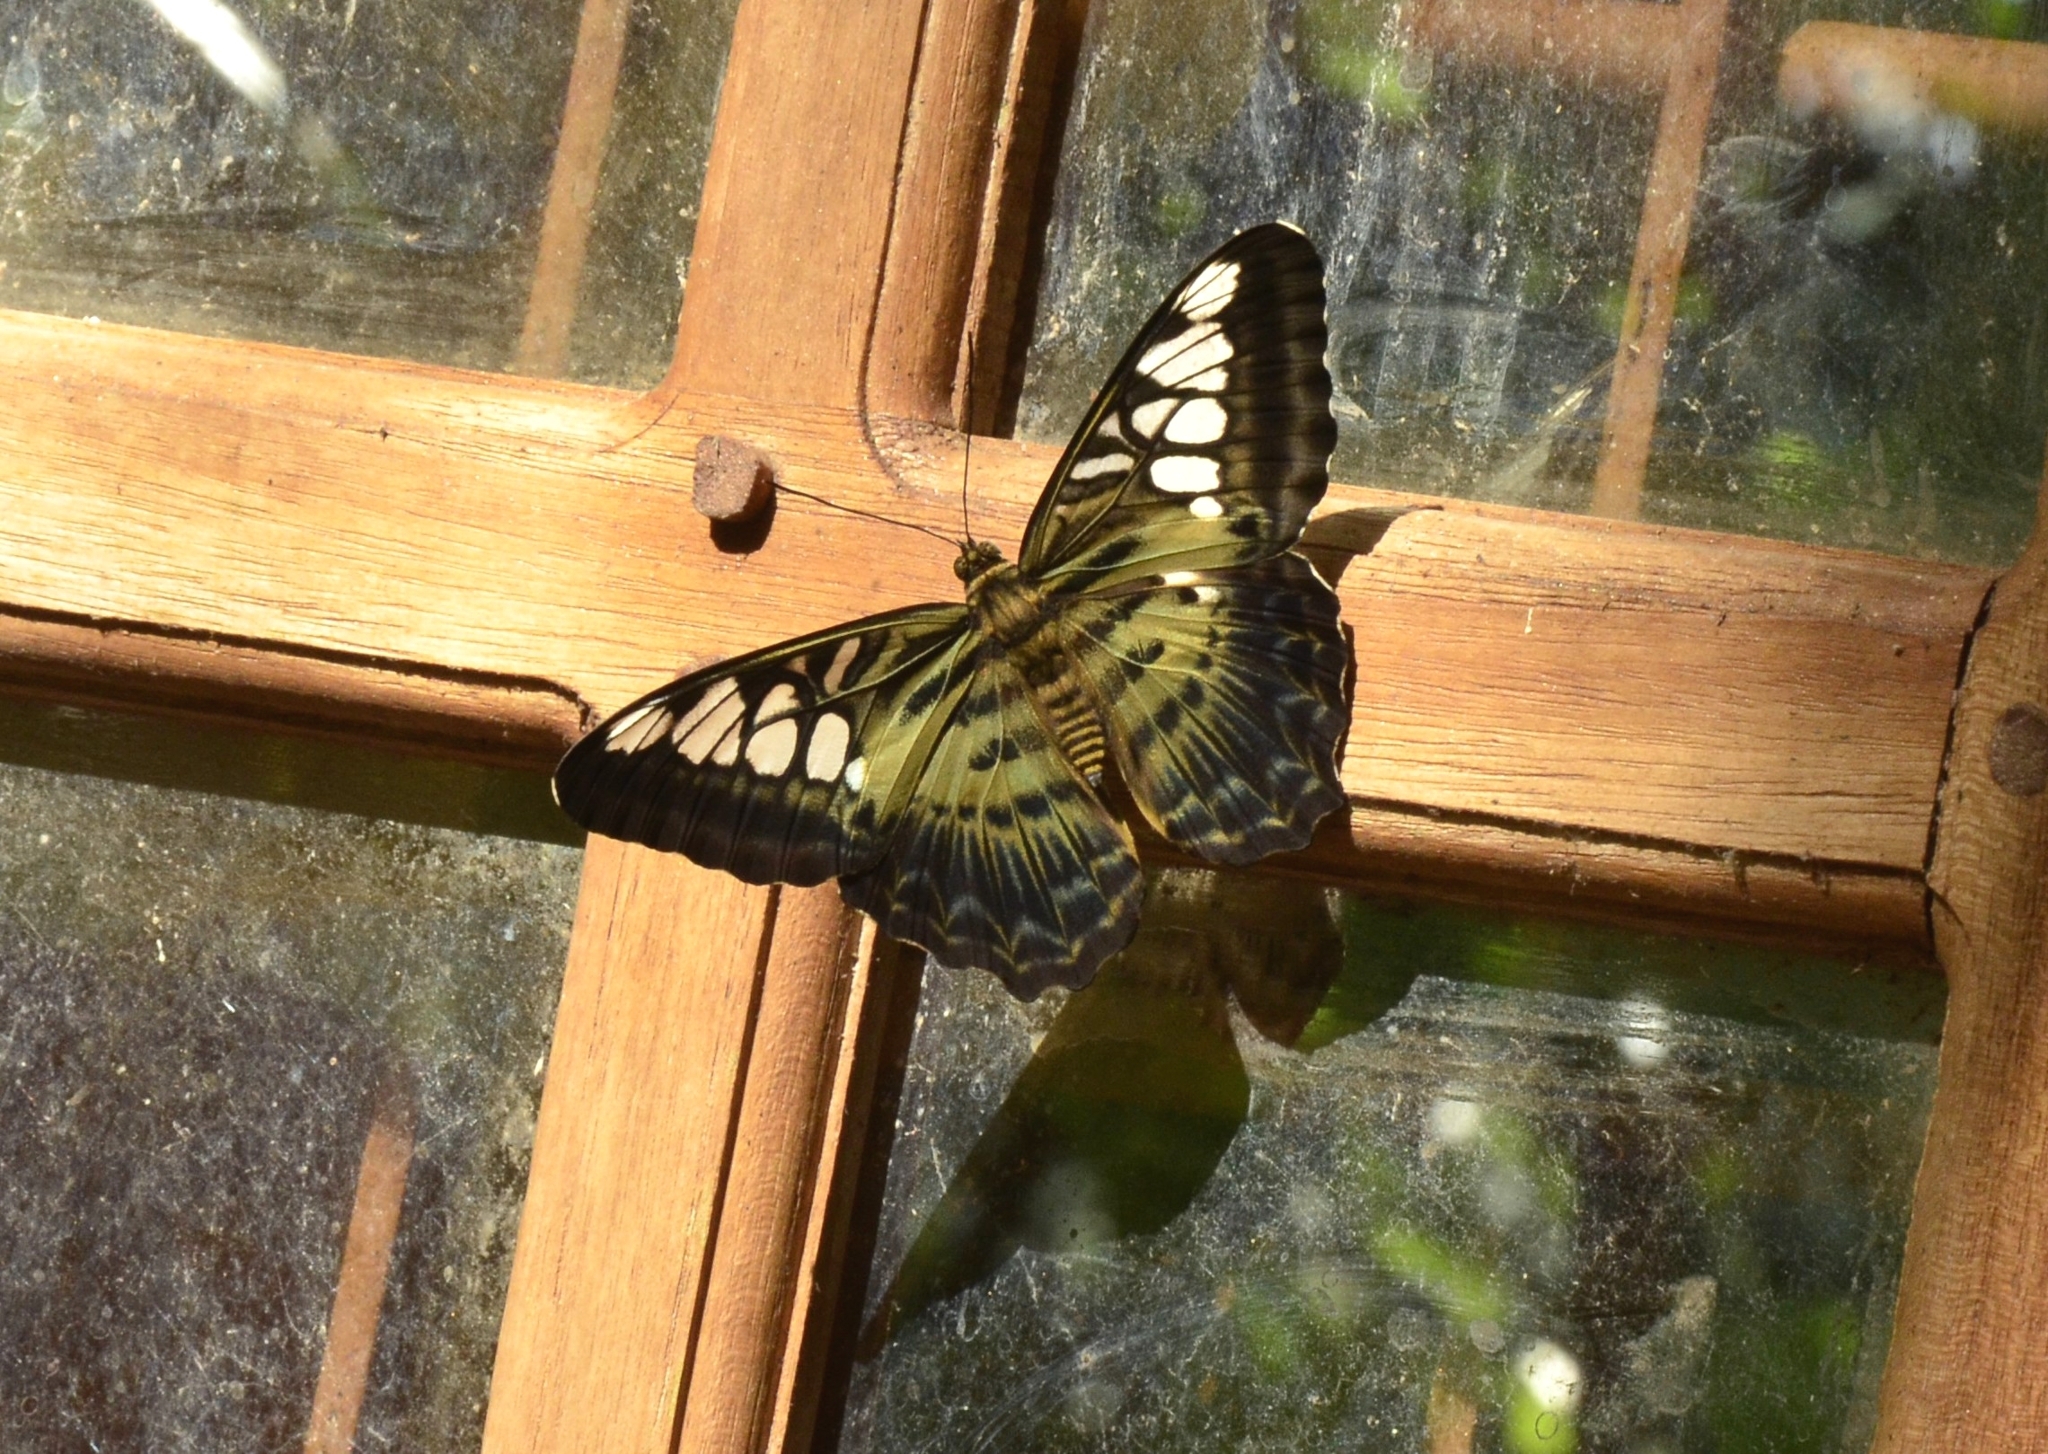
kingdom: Animalia
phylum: Arthropoda
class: Insecta
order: Lepidoptera
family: Nymphalidae
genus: Kallima
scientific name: Kallima sylvia
